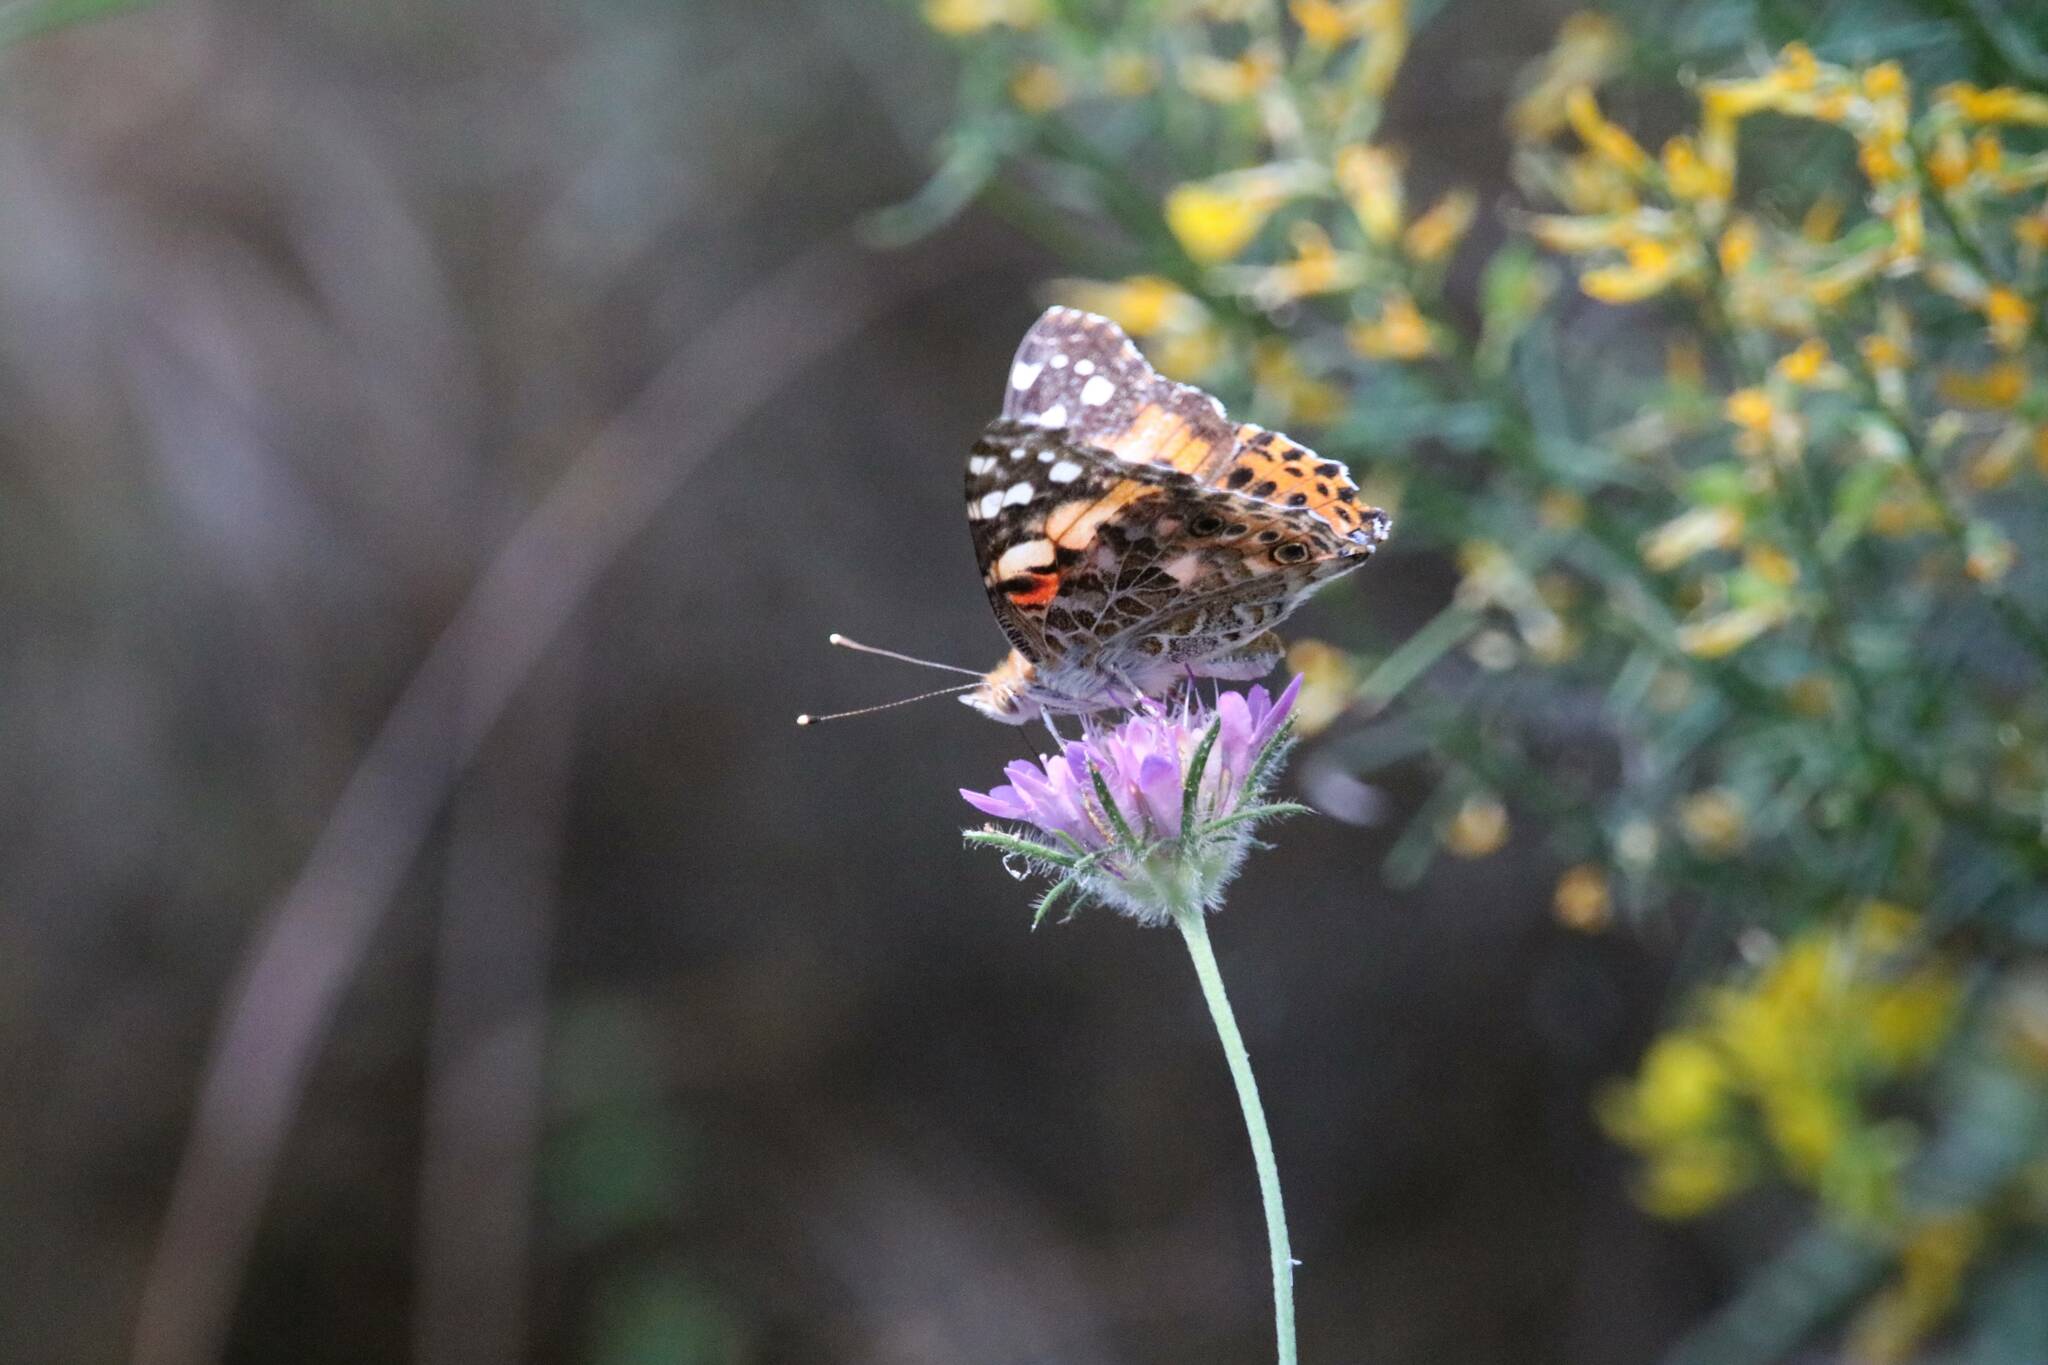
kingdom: Animalia
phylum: Arthropoda
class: Insecta
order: Lepidoptera
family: Nymphalidae
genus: Vanessa
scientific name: Vanessa cardui
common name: Painted lady
